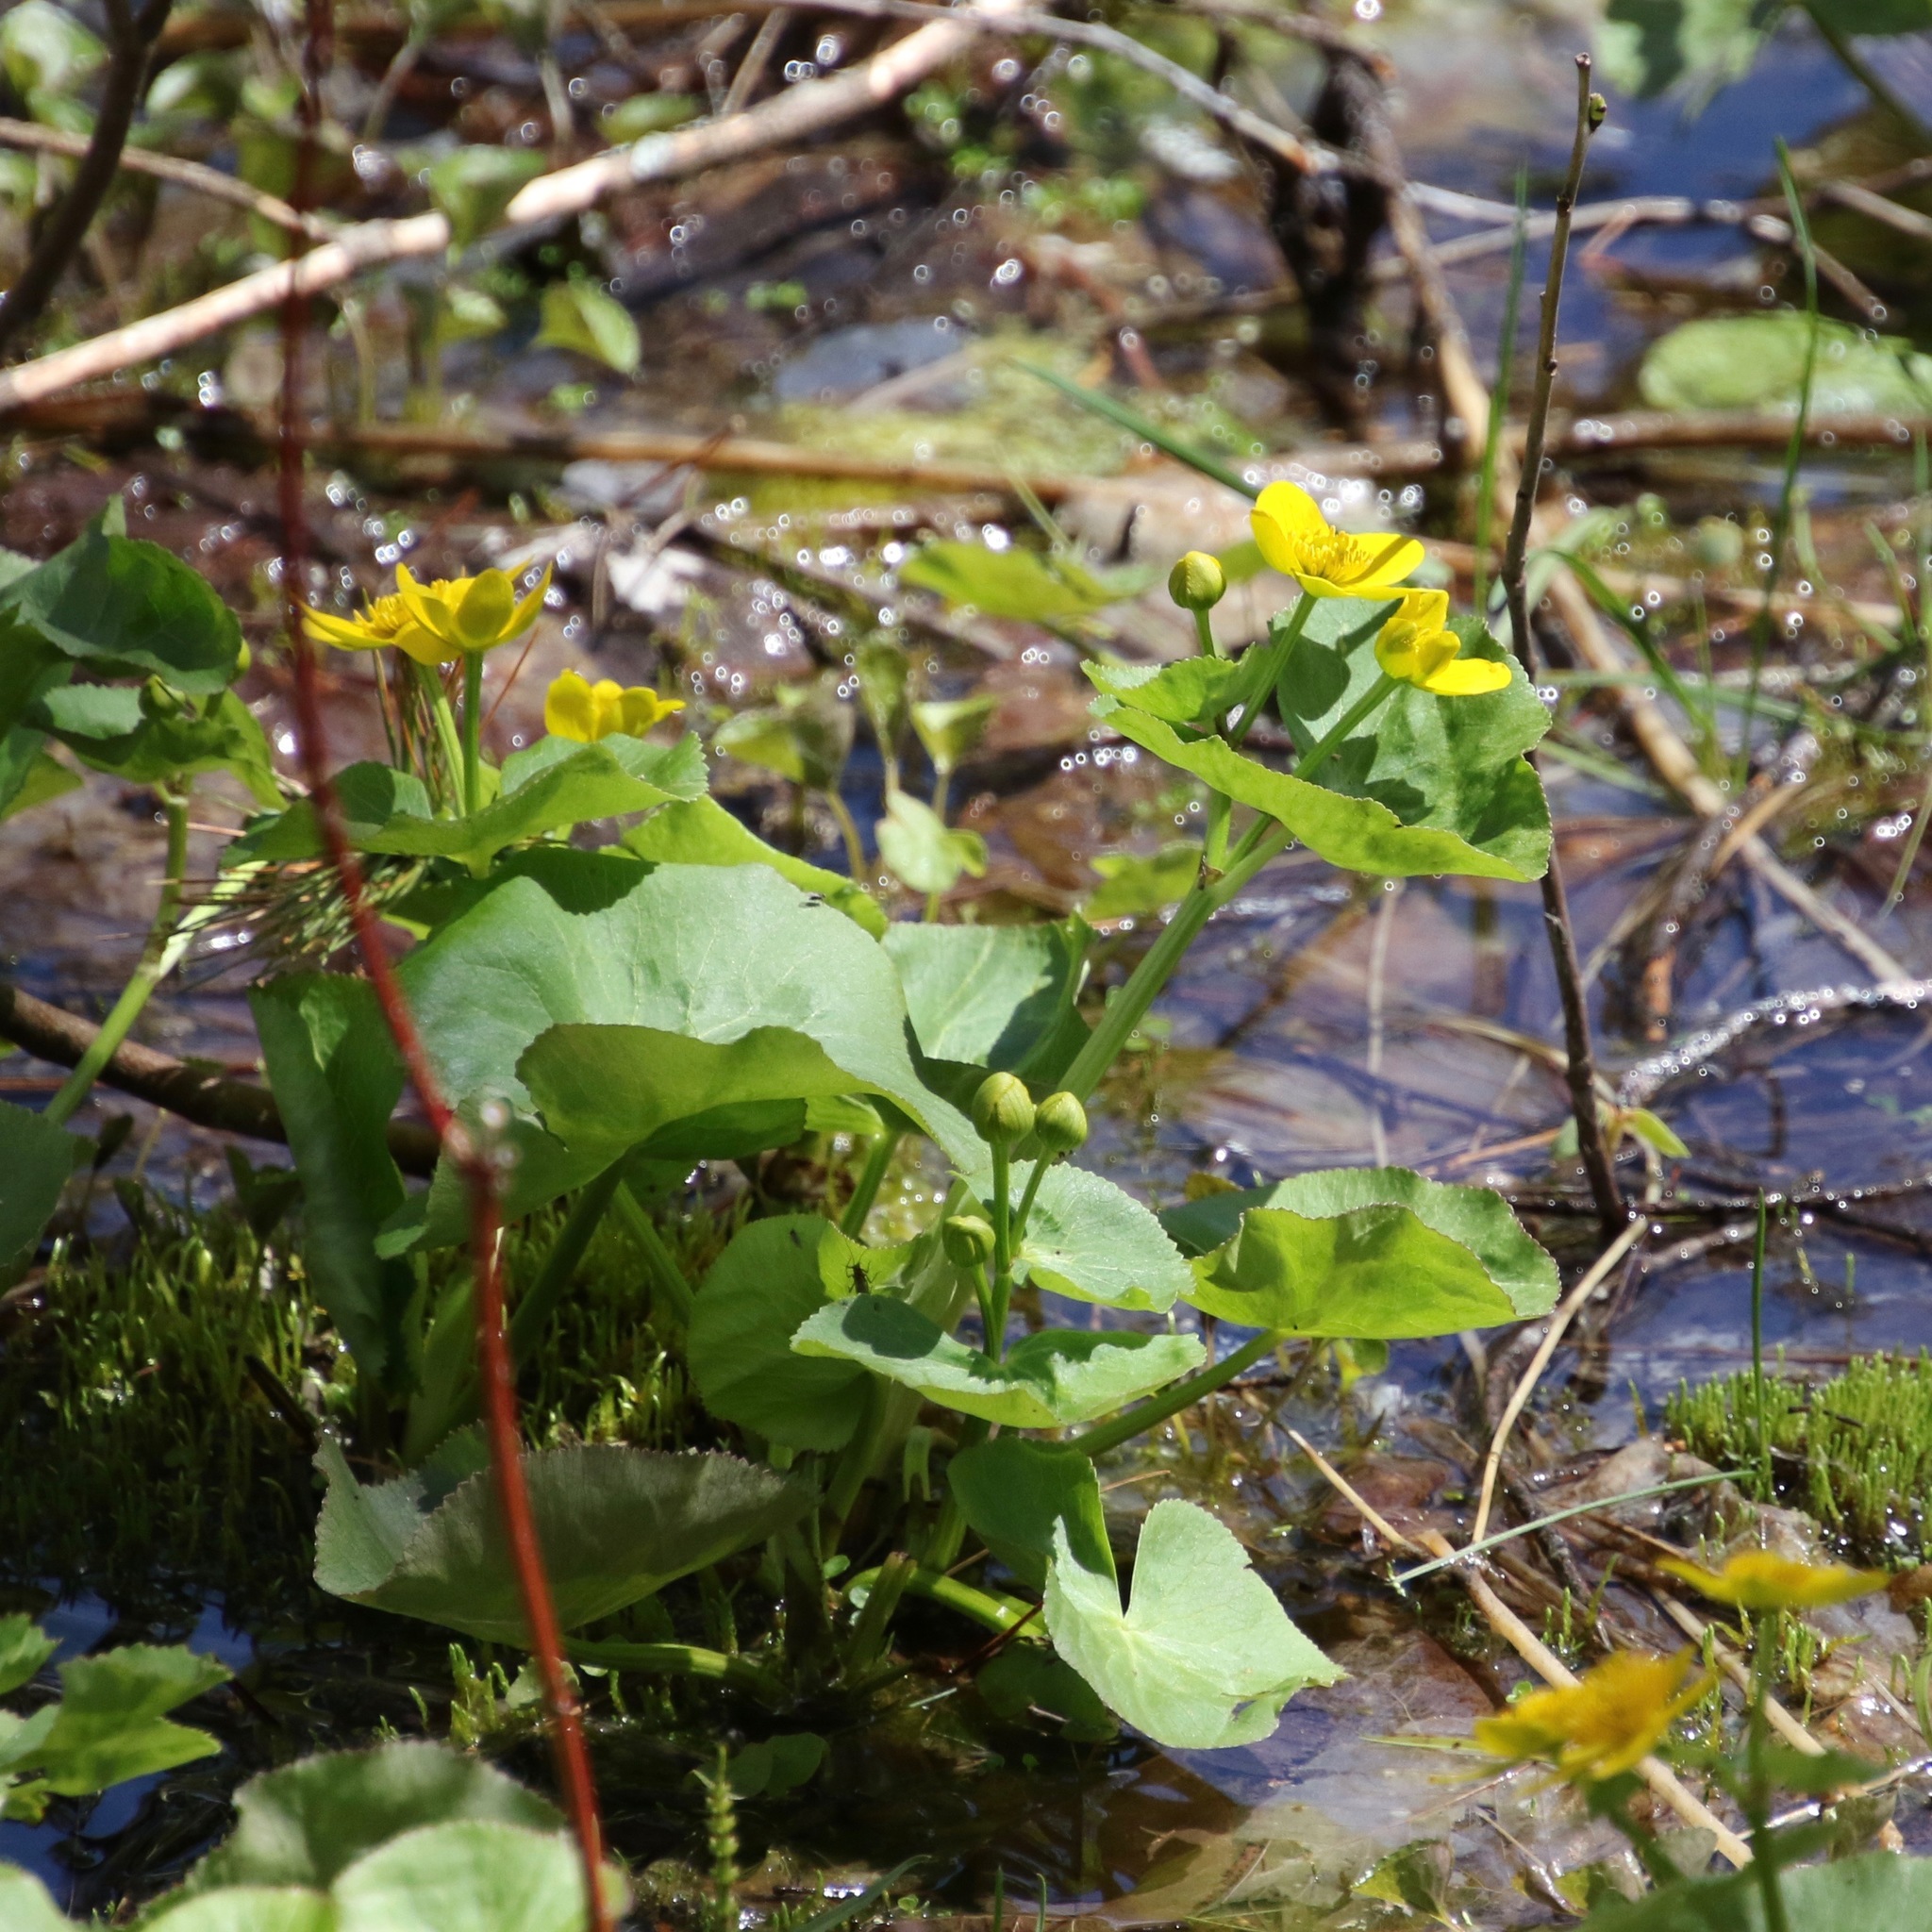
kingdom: Plantae
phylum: Tracheophyta
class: Magnoliopsida
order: Ranunculales
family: Ranunculaceae
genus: Caltha
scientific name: Caltha palustris
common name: Marsh marigold
